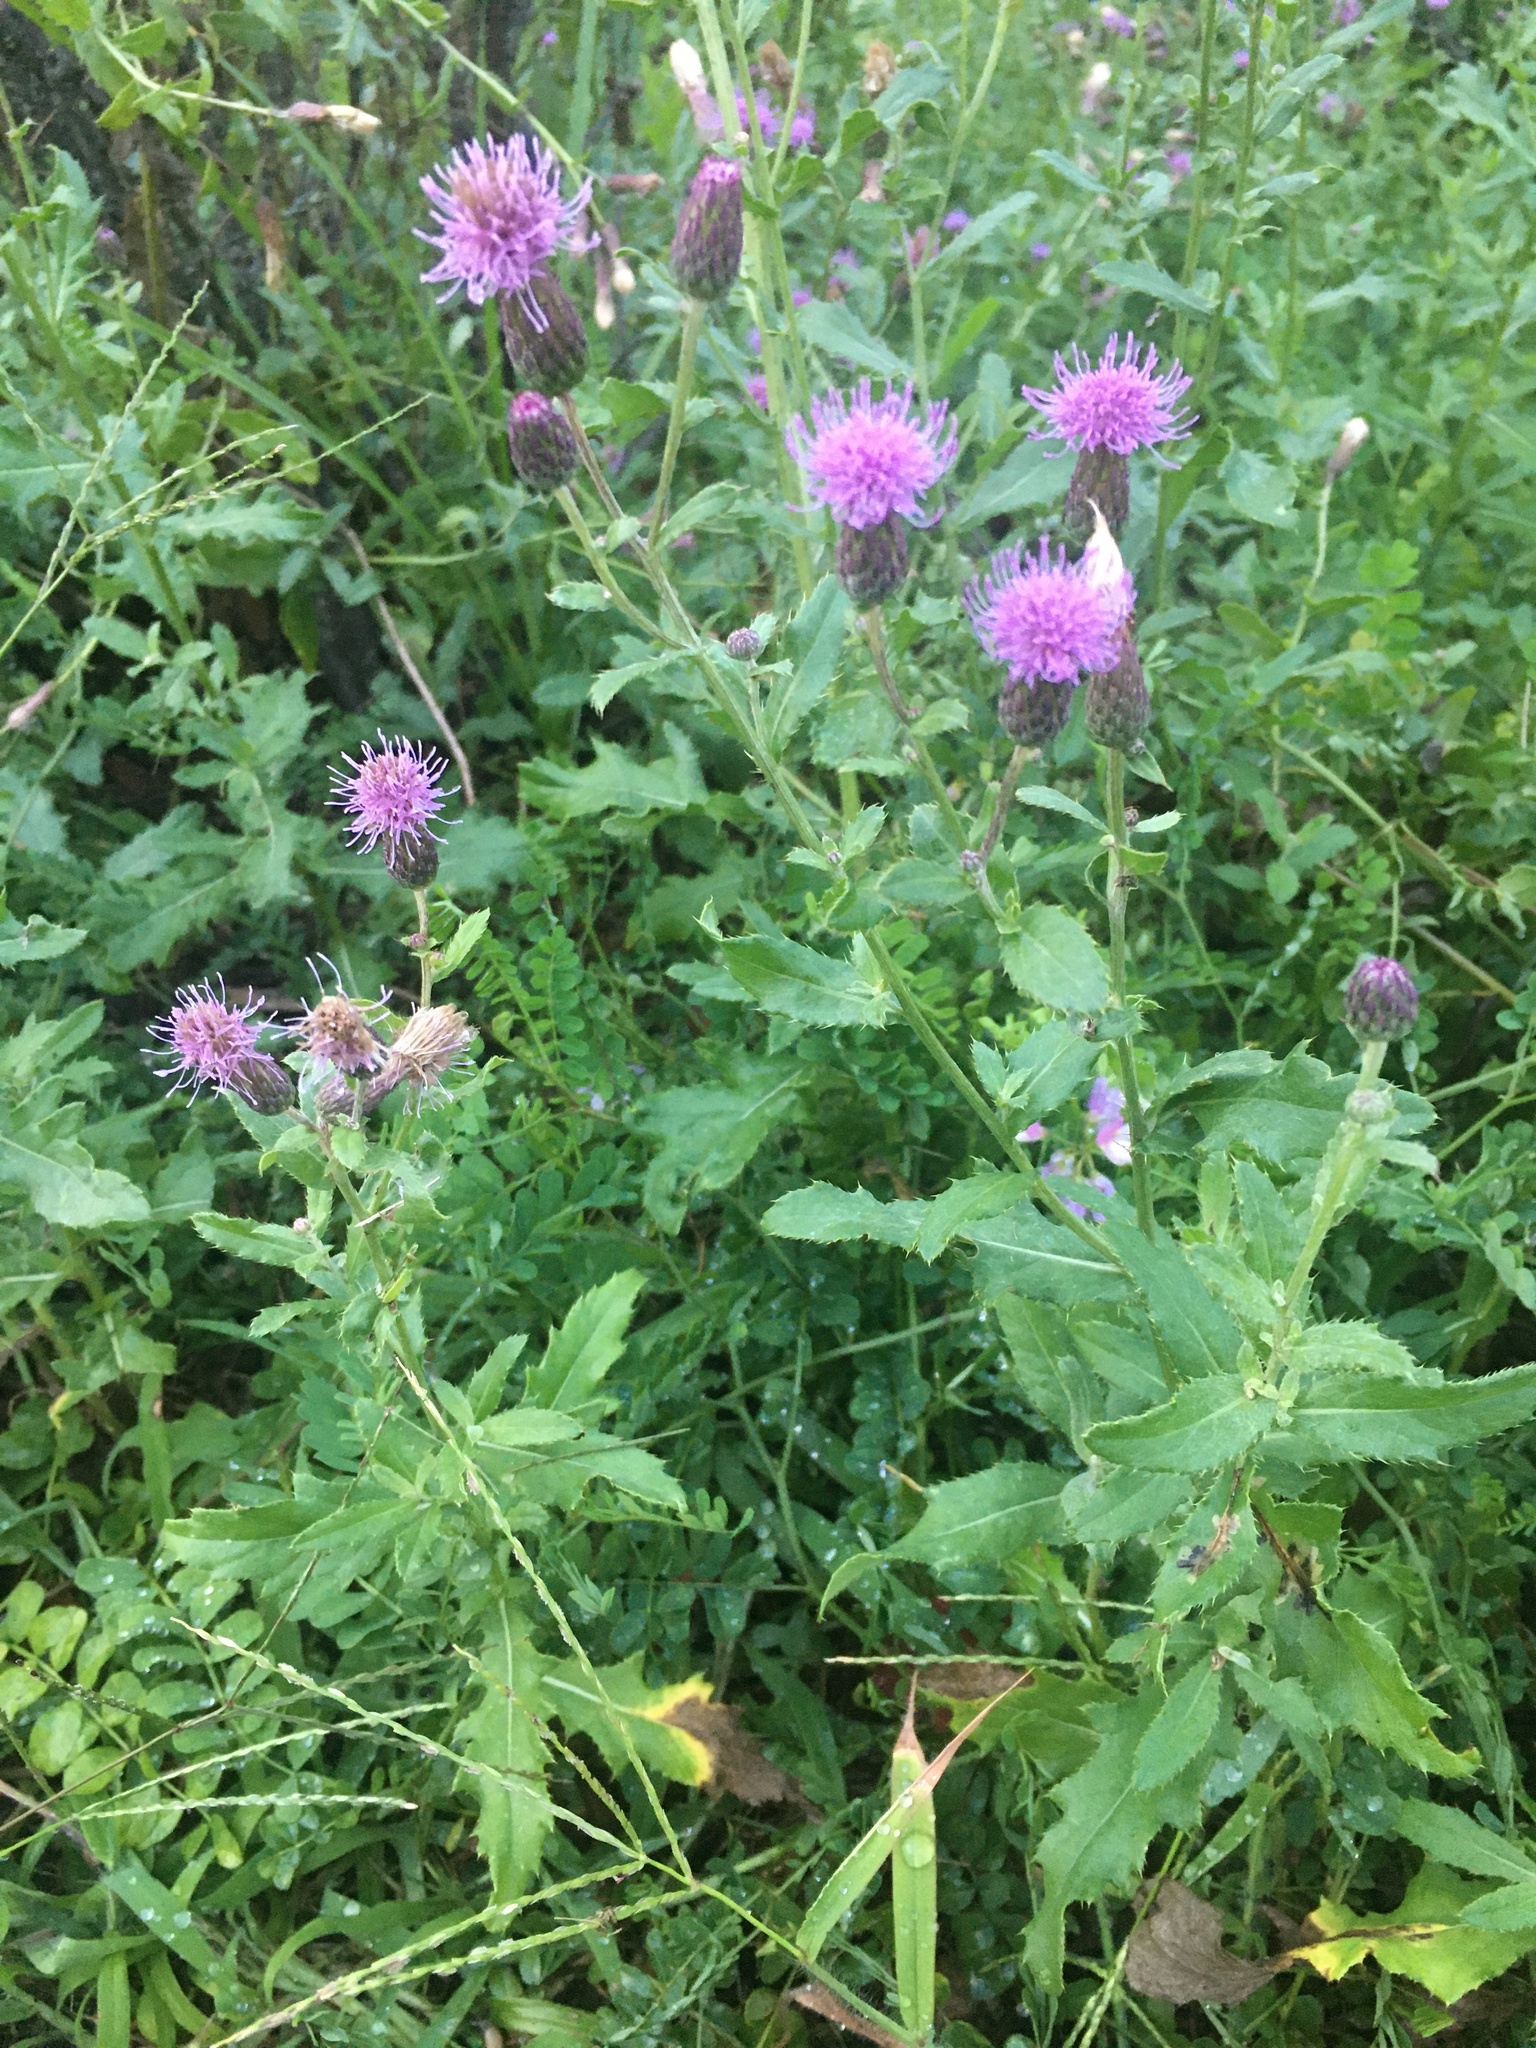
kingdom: Plantae
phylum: Tracheophyta
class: Magnoliopsida
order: Asterales
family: Asteraceae
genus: Cirsium
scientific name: Cirsium arvense
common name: Creeping thistle
